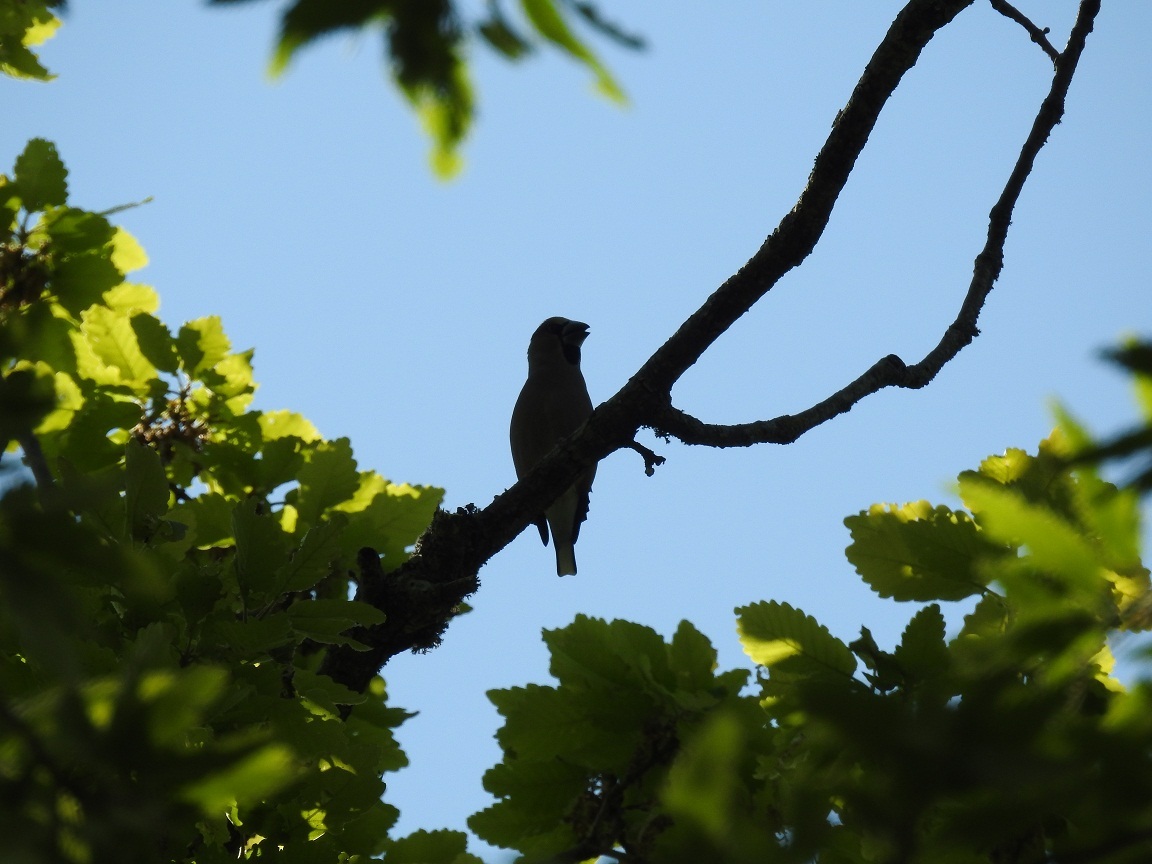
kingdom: Animalia
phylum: Chordata
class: Aves
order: Passeriformes
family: Fringillidae
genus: Coccothraustes
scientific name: Coccothraustes coccothraustes
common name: Hawfinch
